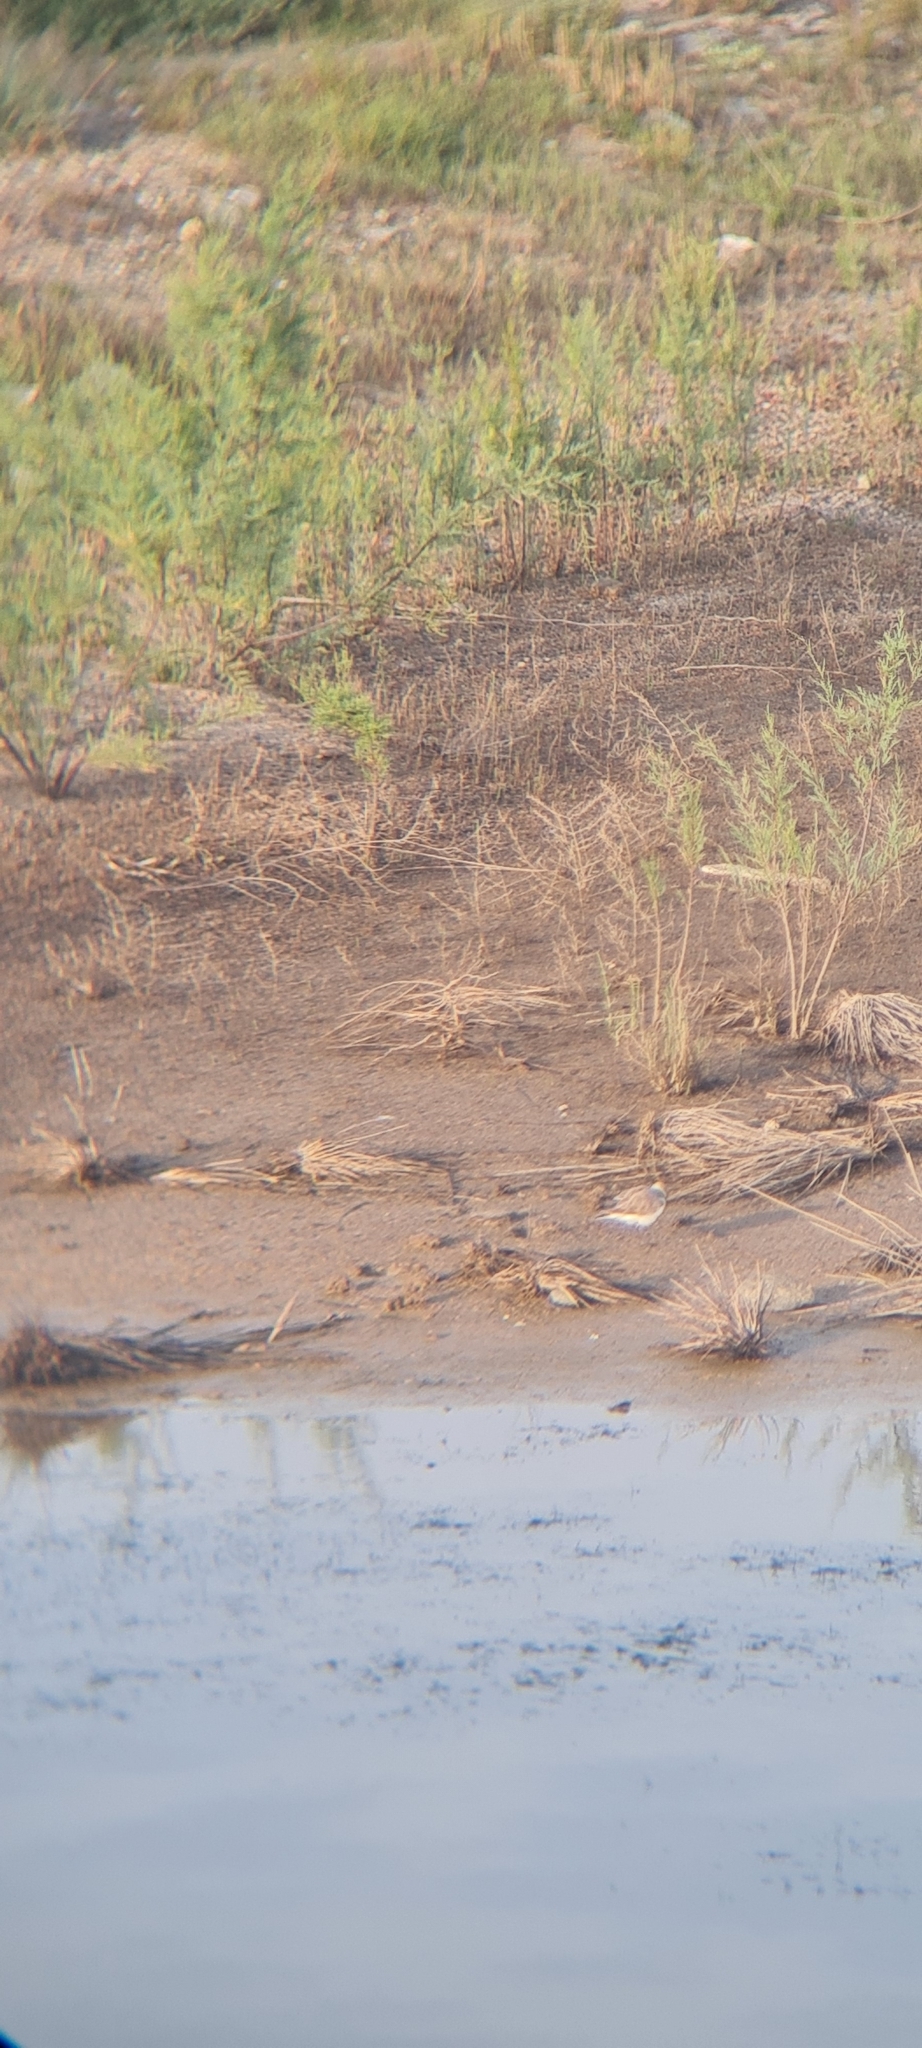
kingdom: Animalia
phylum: Chordata
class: Aves
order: Charadriiformes
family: Charadriidae
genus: Charadrius
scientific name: Charadrius alexandrinus
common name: Kentish plover
